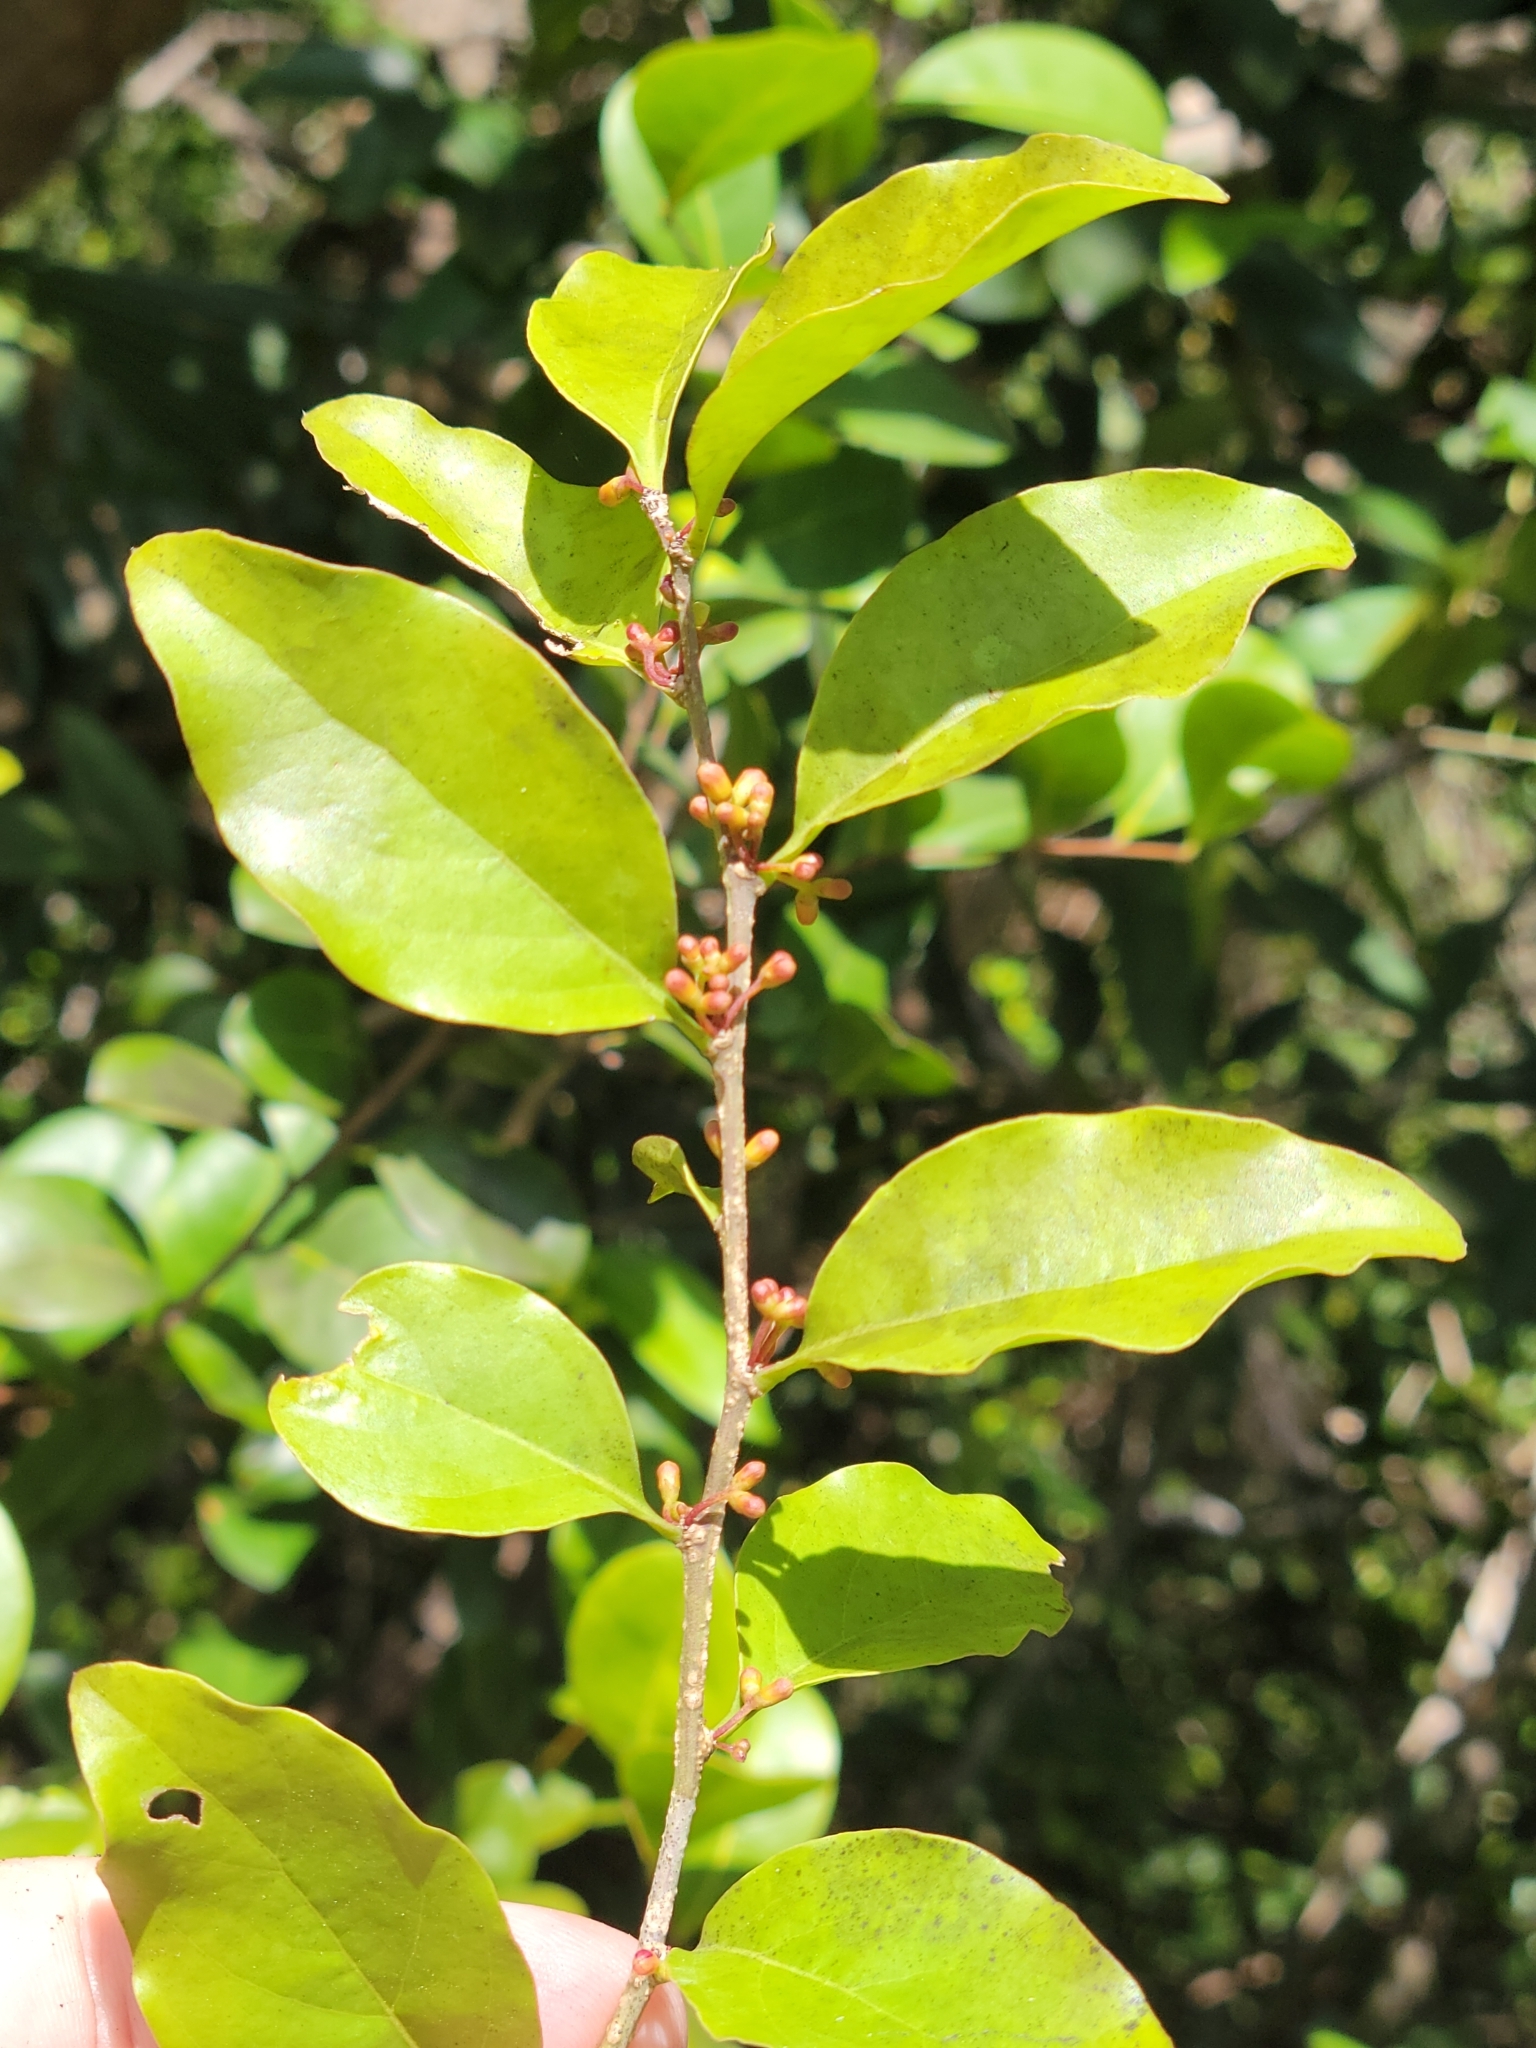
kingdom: Plantae
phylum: Tracheophyta
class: Magnoliopsida
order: Santalales
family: Schoepfiaceae
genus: Schoepfia
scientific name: Schoepfia schreberi
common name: Gulf graytwig
